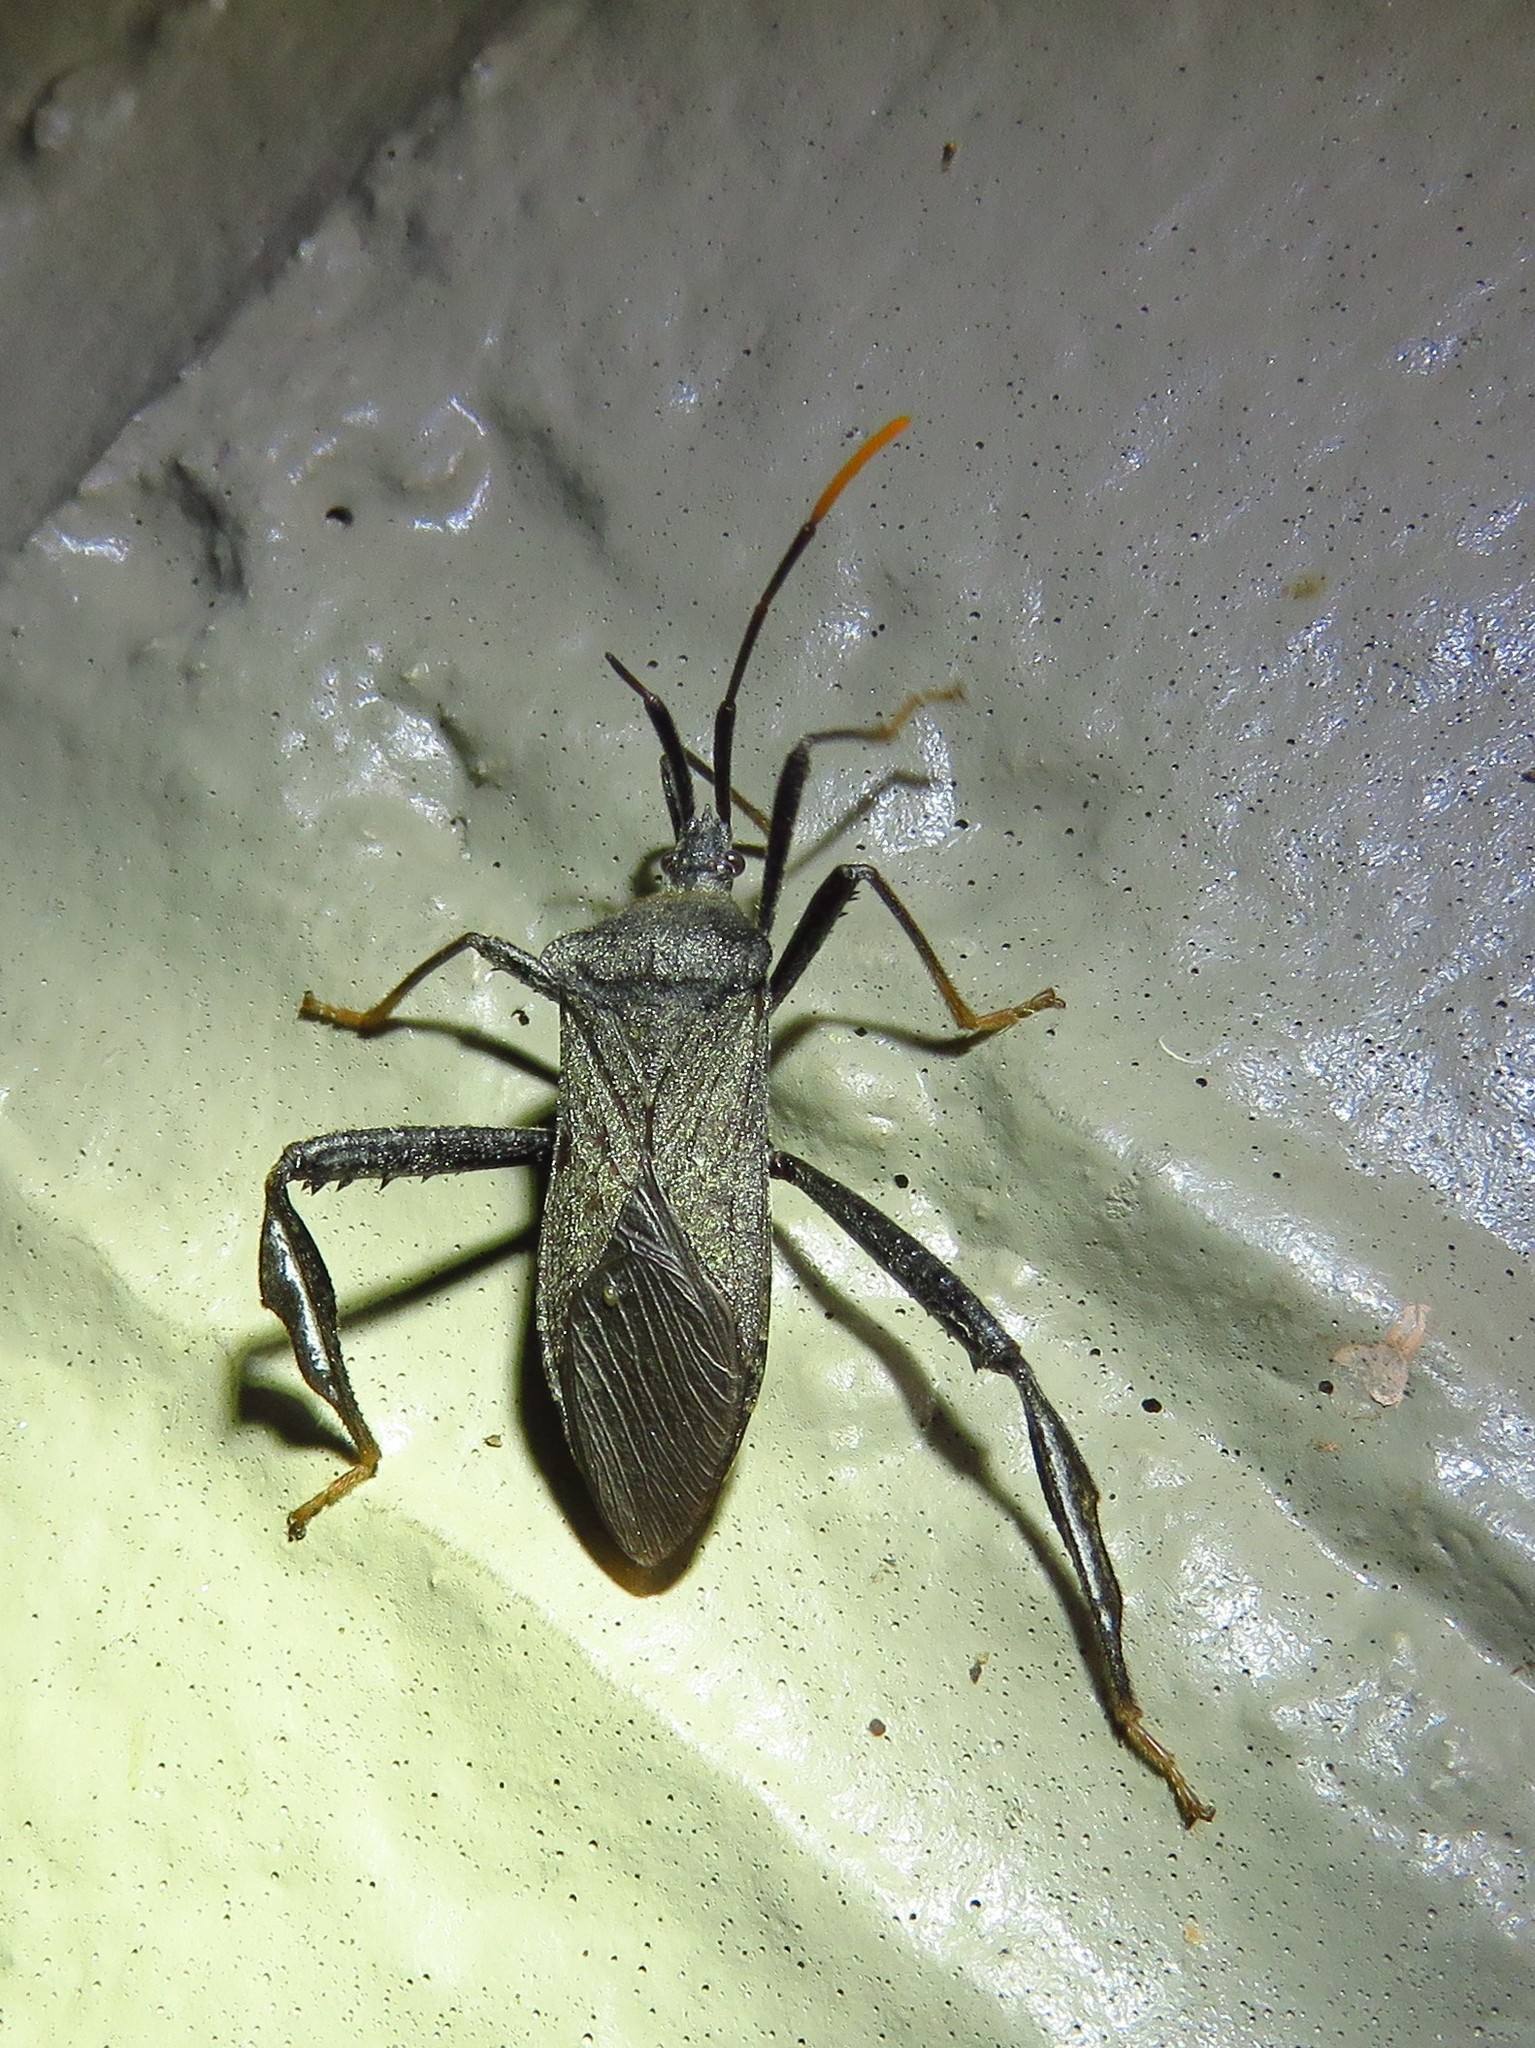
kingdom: Animalia
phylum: Arthropoda
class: Insecta
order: Hemiptera
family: Coreidae
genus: Acanthocephala
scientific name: Acanthocephala terminalis
